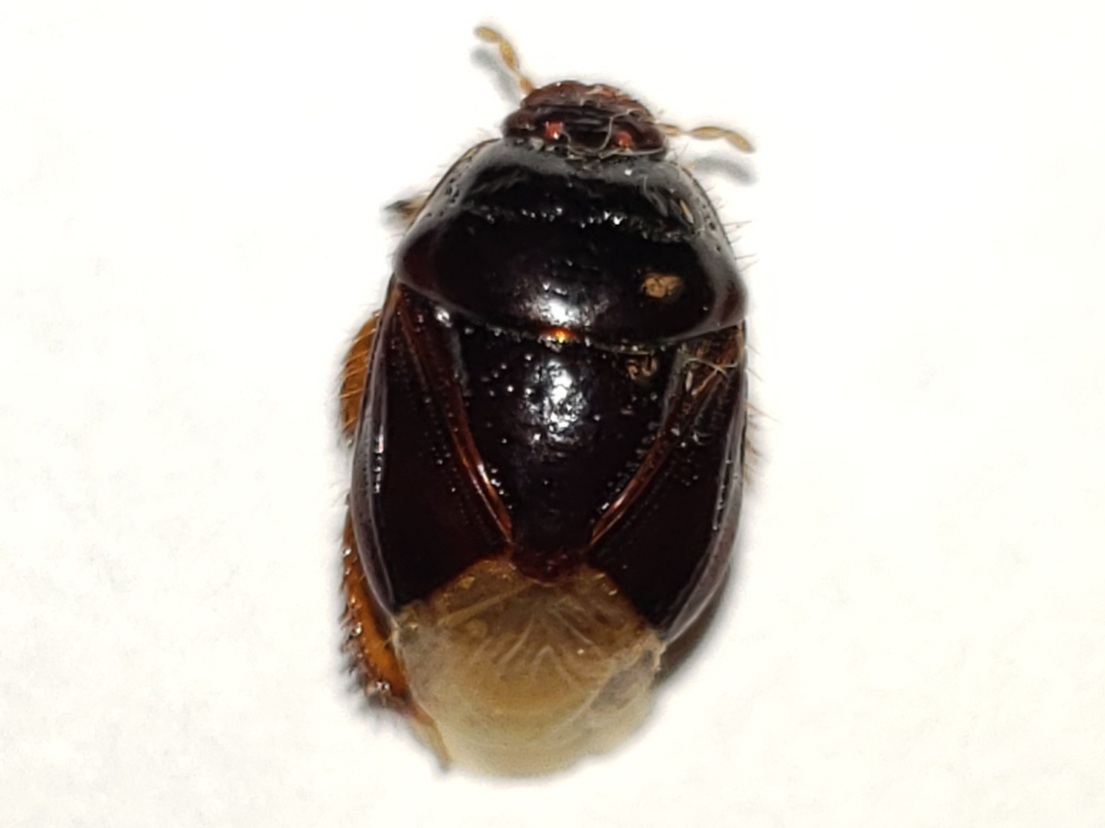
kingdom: Animalia
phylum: Arthropoda
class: Insecta
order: Hemiptera
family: Cydnidae
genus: Cyrtomenus
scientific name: Cyrtomenus ciliatus
